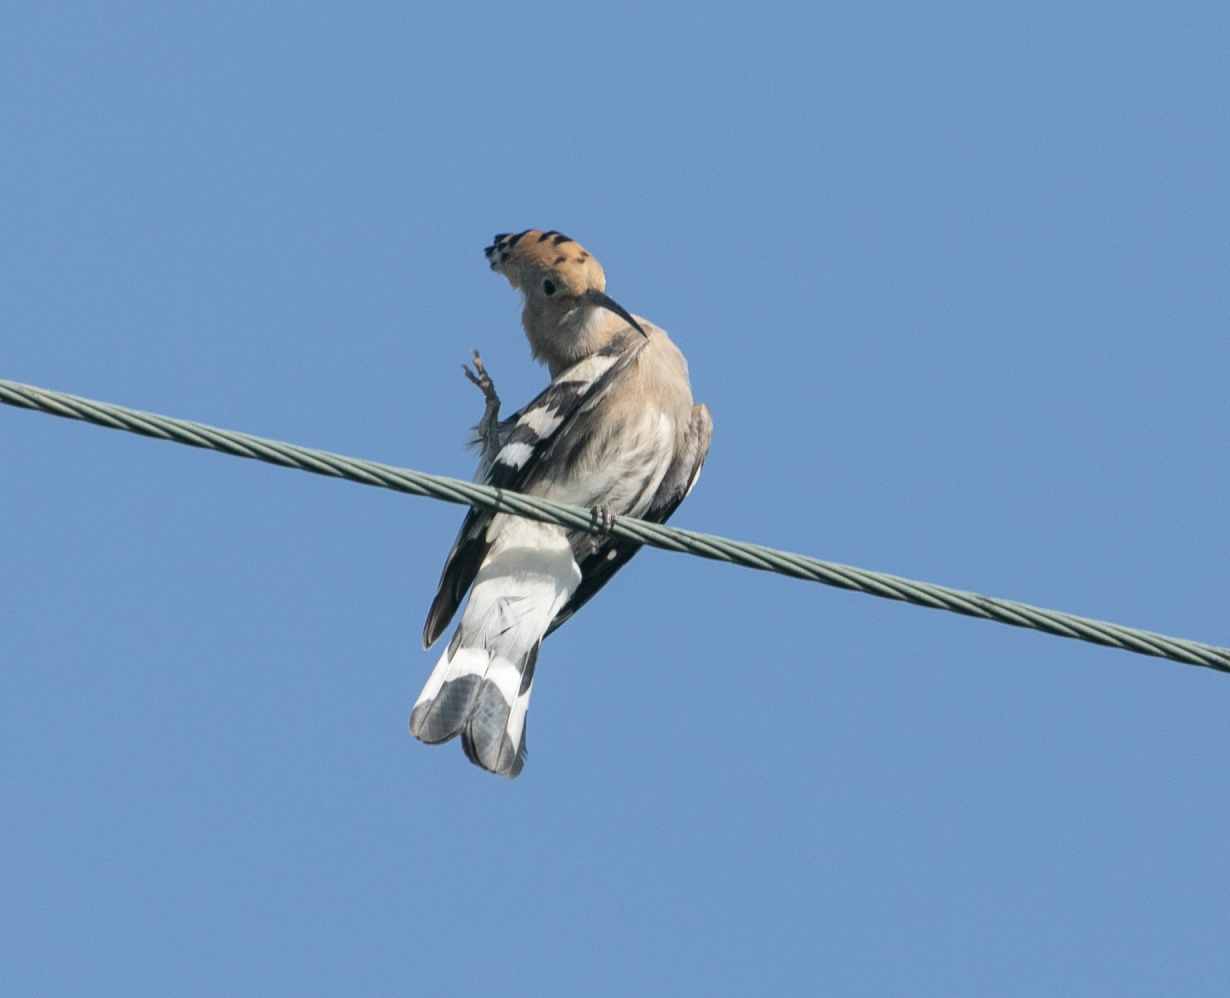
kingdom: Animalia
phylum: Chordata
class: Aves
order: Bucerotiformes
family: Upupidae
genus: Upupa
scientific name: Upupa epops
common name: Eurasian hoopoe
